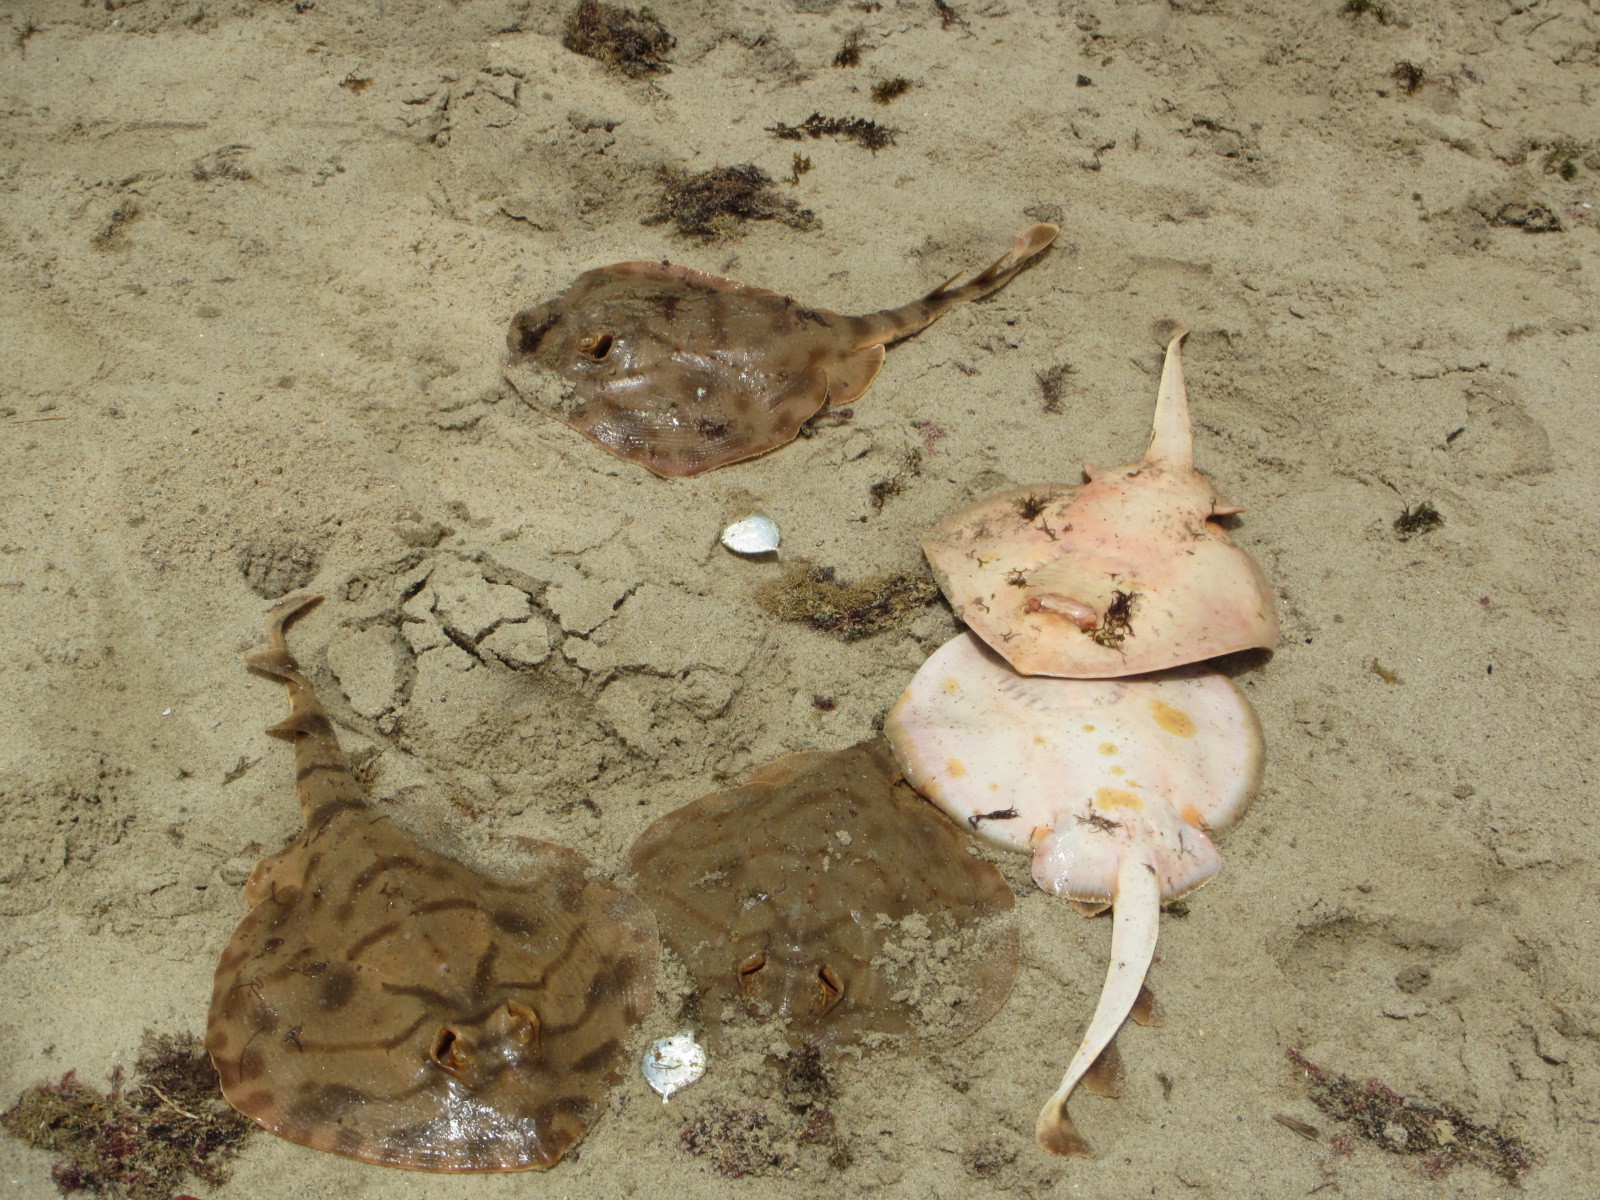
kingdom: Animalia
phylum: Chordata
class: Elasmobranchii
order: Rhinopristiformes
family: Rhinobatidae
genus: Zanobatus
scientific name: Zanobatus schoenleinii
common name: Striped panray
